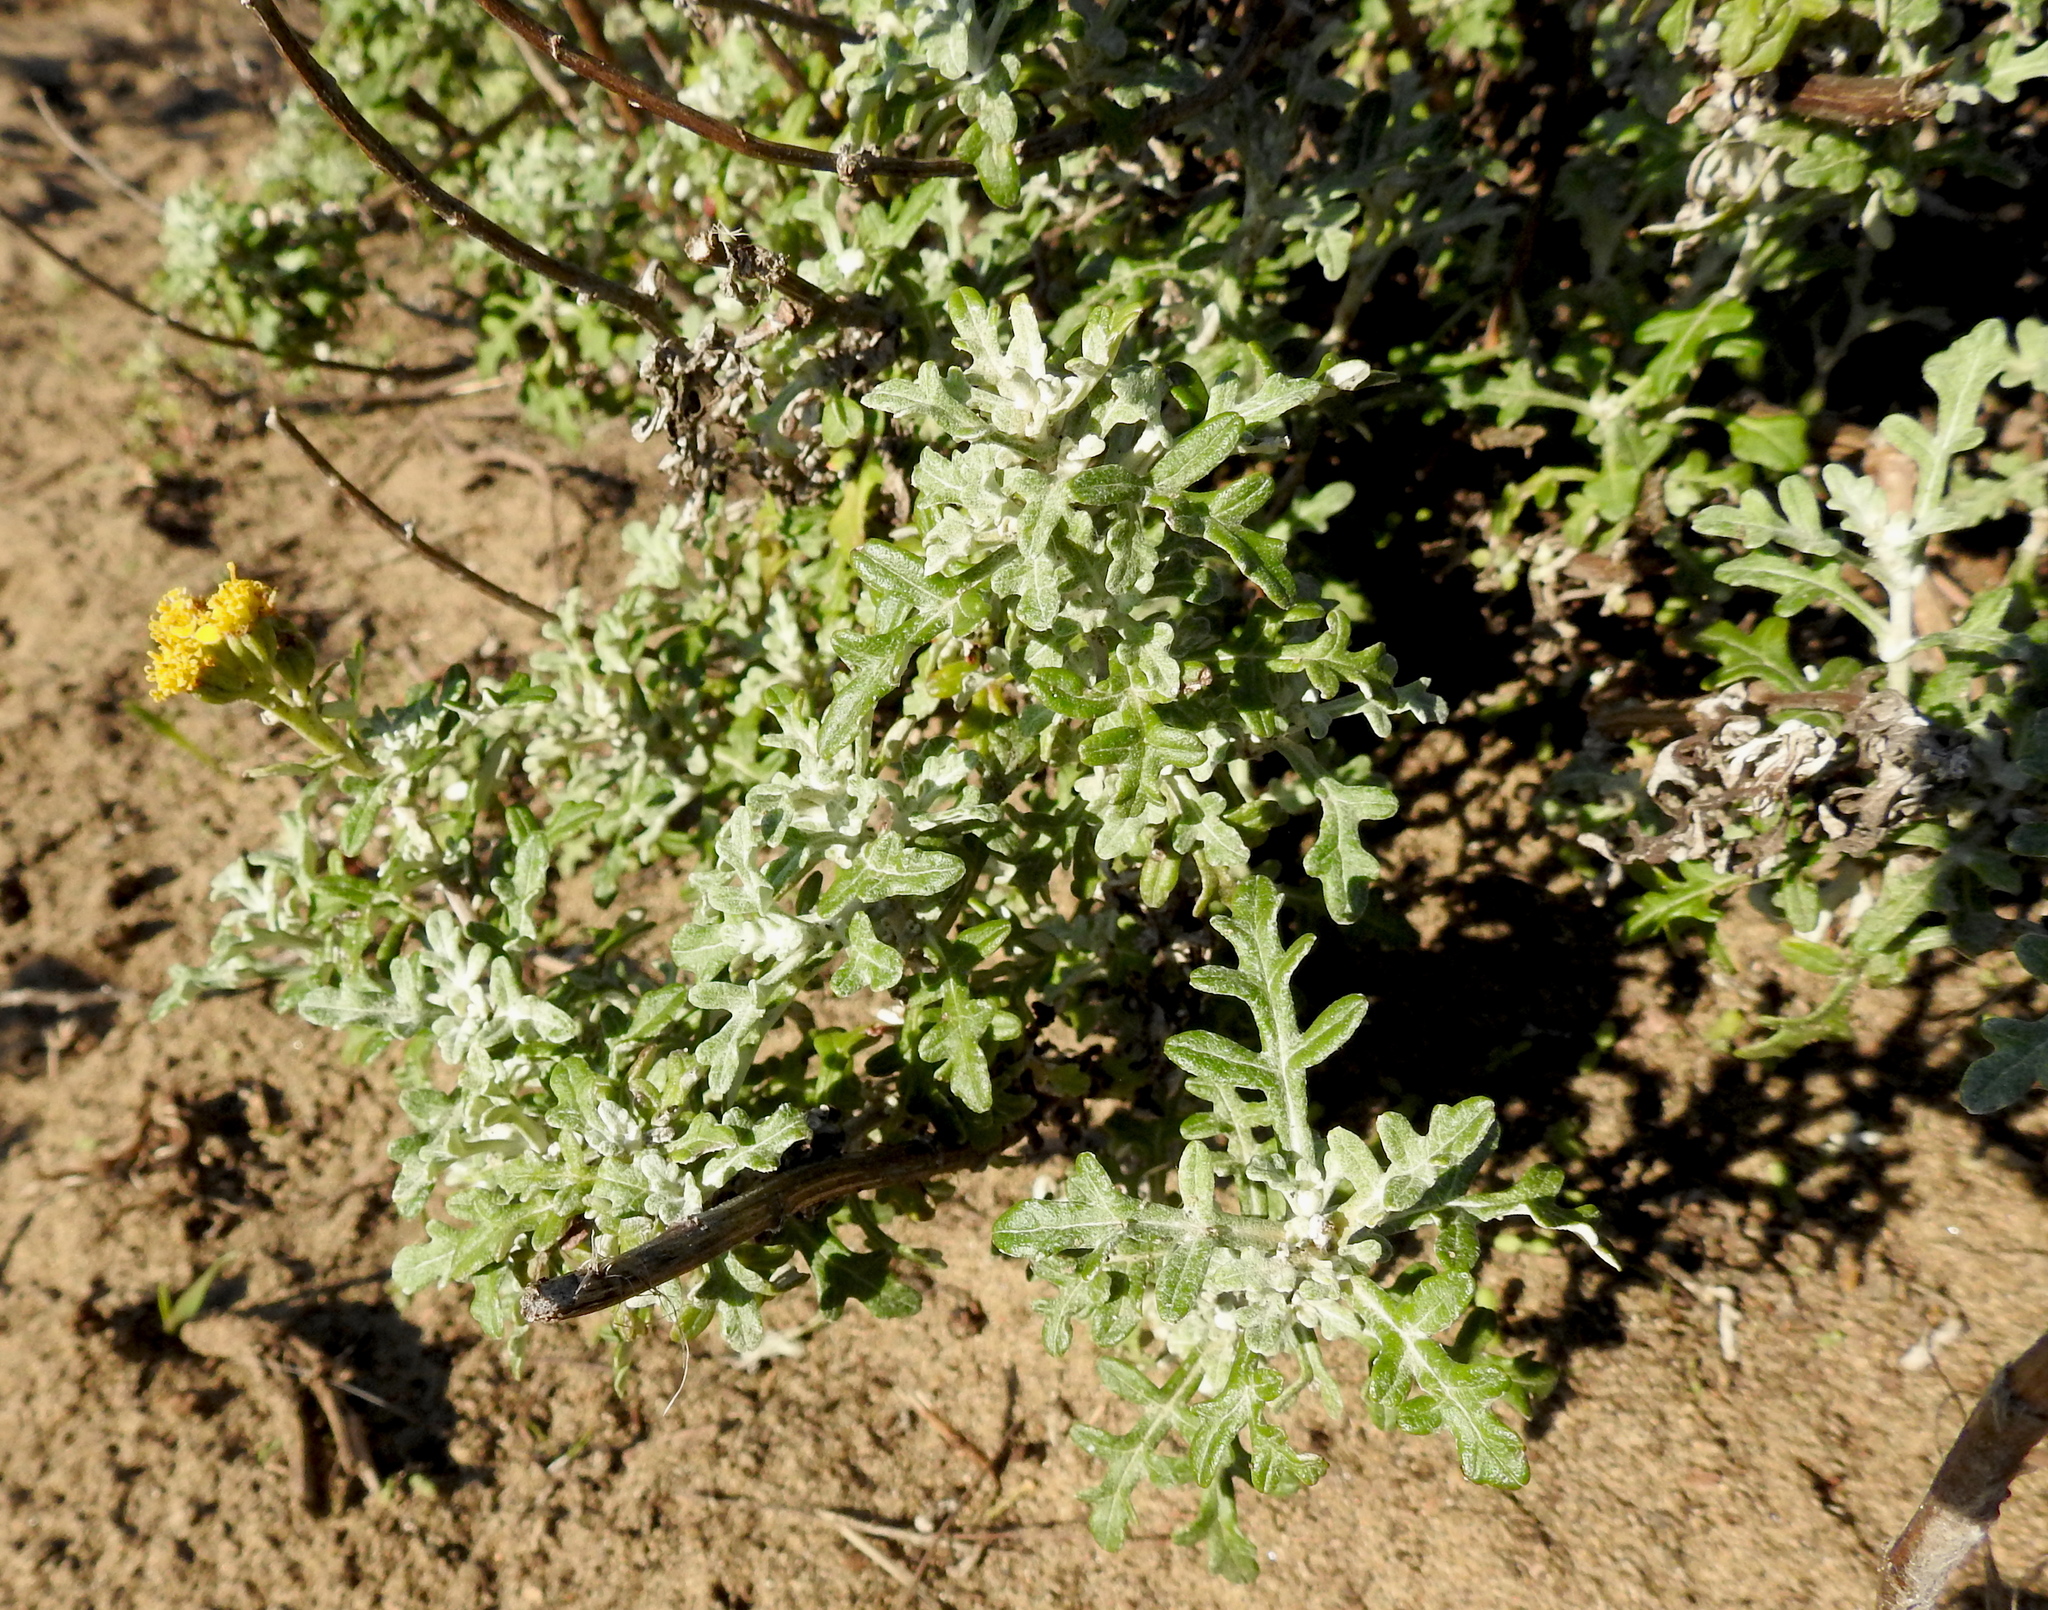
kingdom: Plantae
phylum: Tracheophyta
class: Magnoliopsida
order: Asterales
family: Asteraceae
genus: Eriophyllum
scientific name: Eriophyllum staechadifolium
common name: Lizardtail
